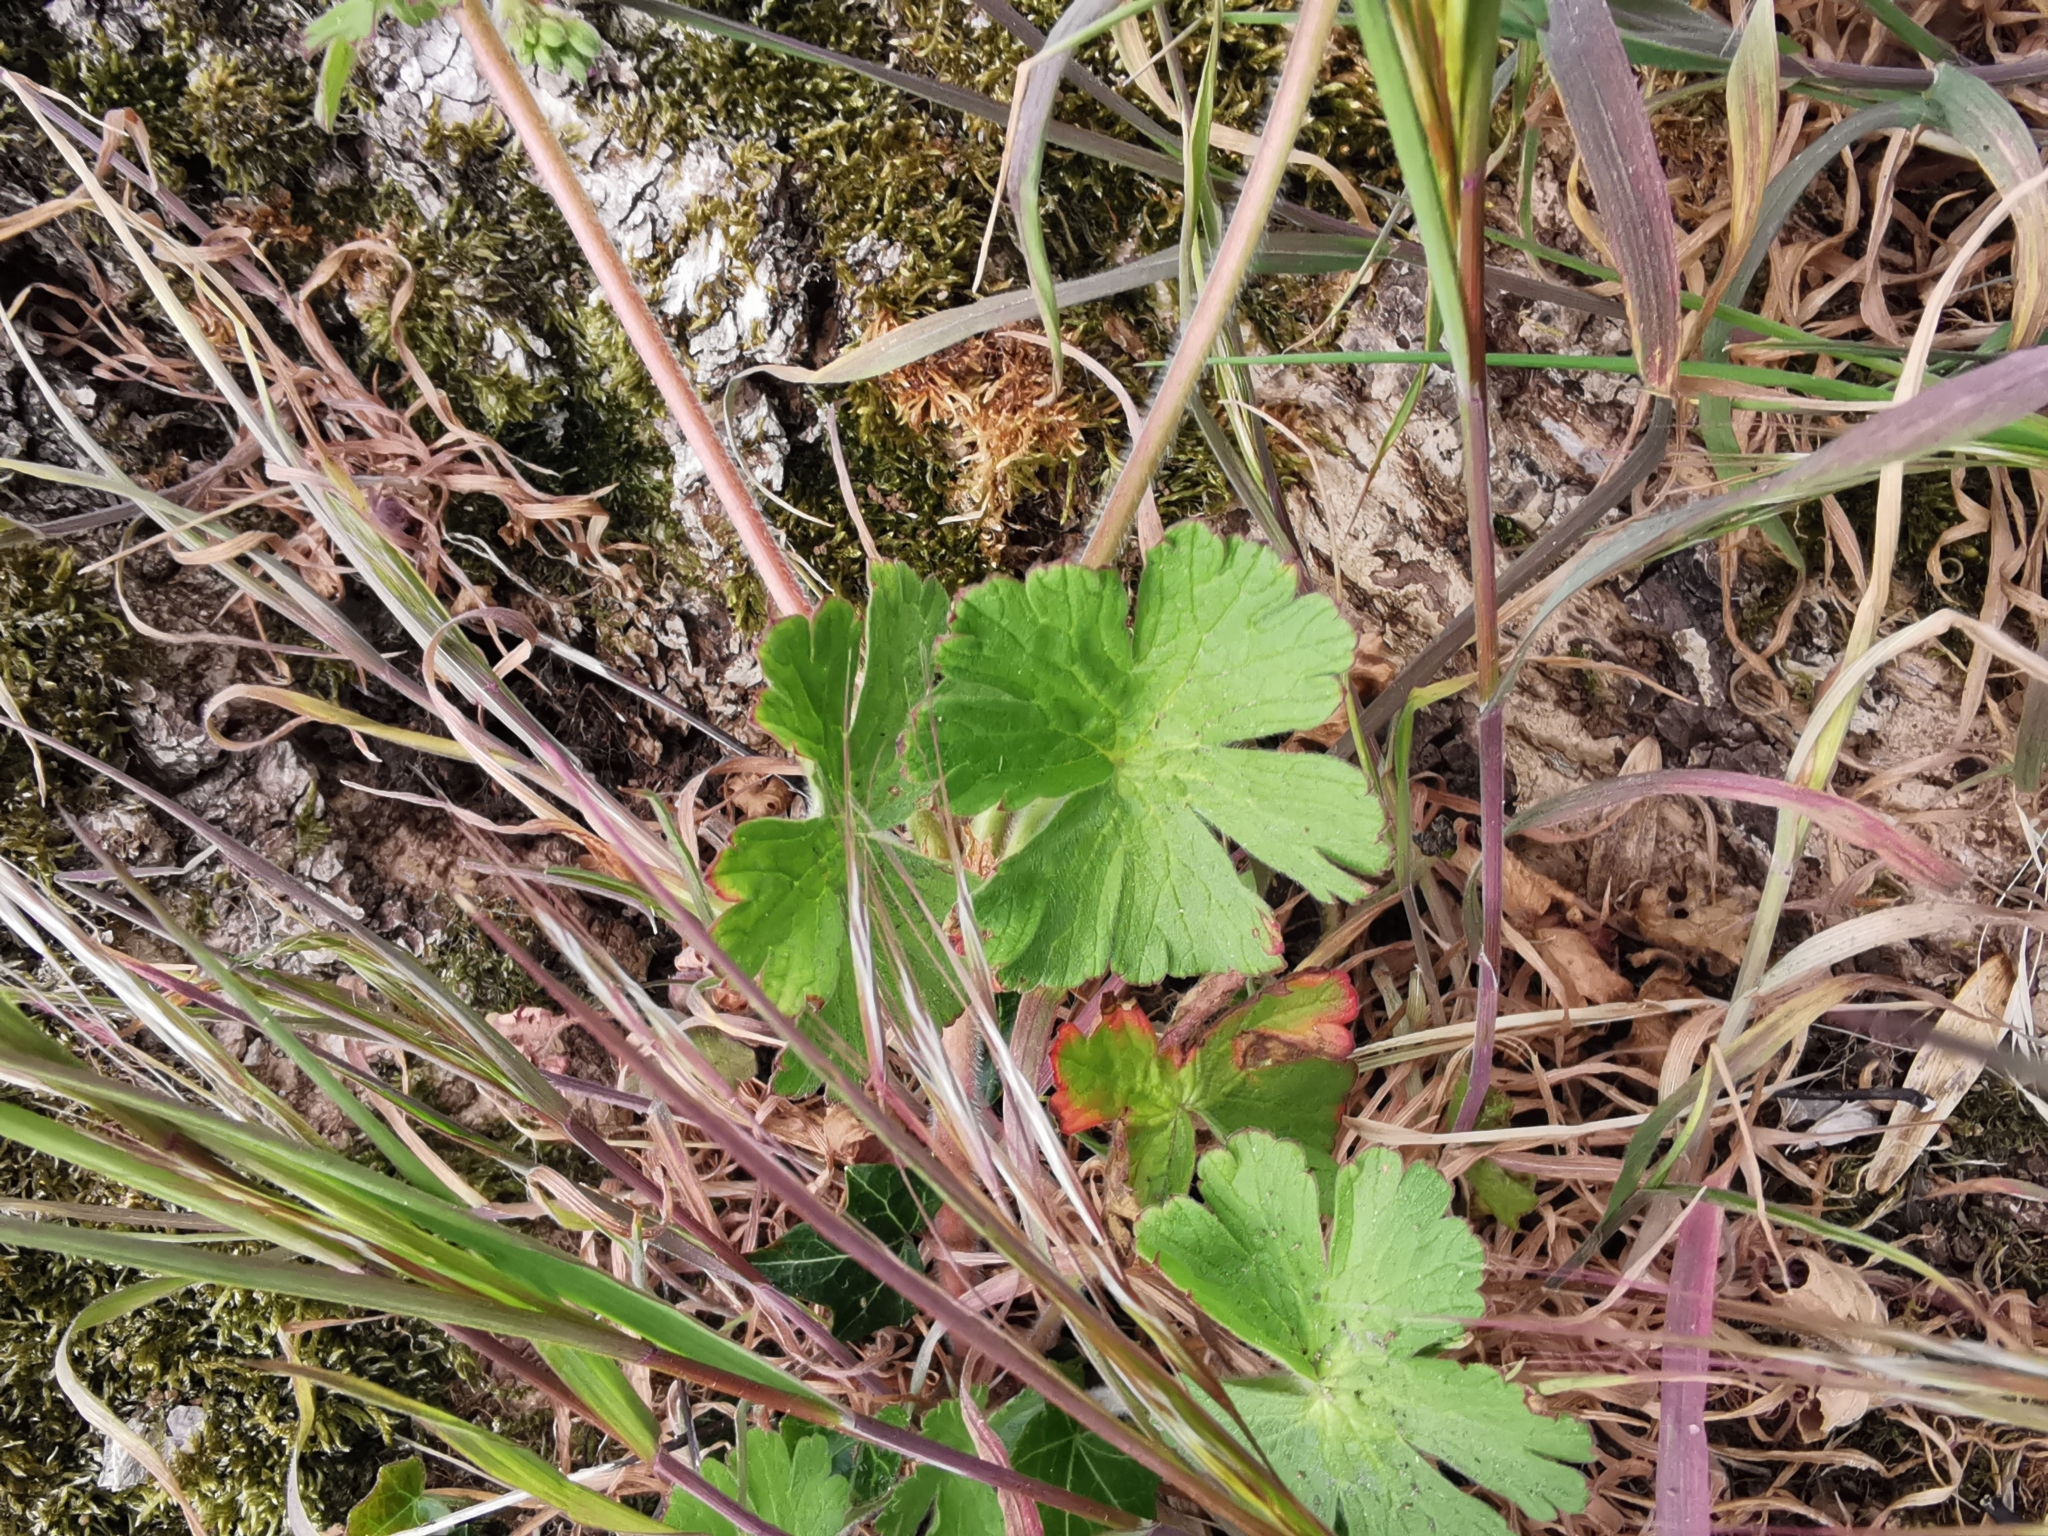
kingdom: Plantae
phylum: Tracheophyta
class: Magnoliopsida
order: Geraniales
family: Geraniaceae
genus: Geranium
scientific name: Geranium pyrenaicum
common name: Hedgerow crane's-bill
